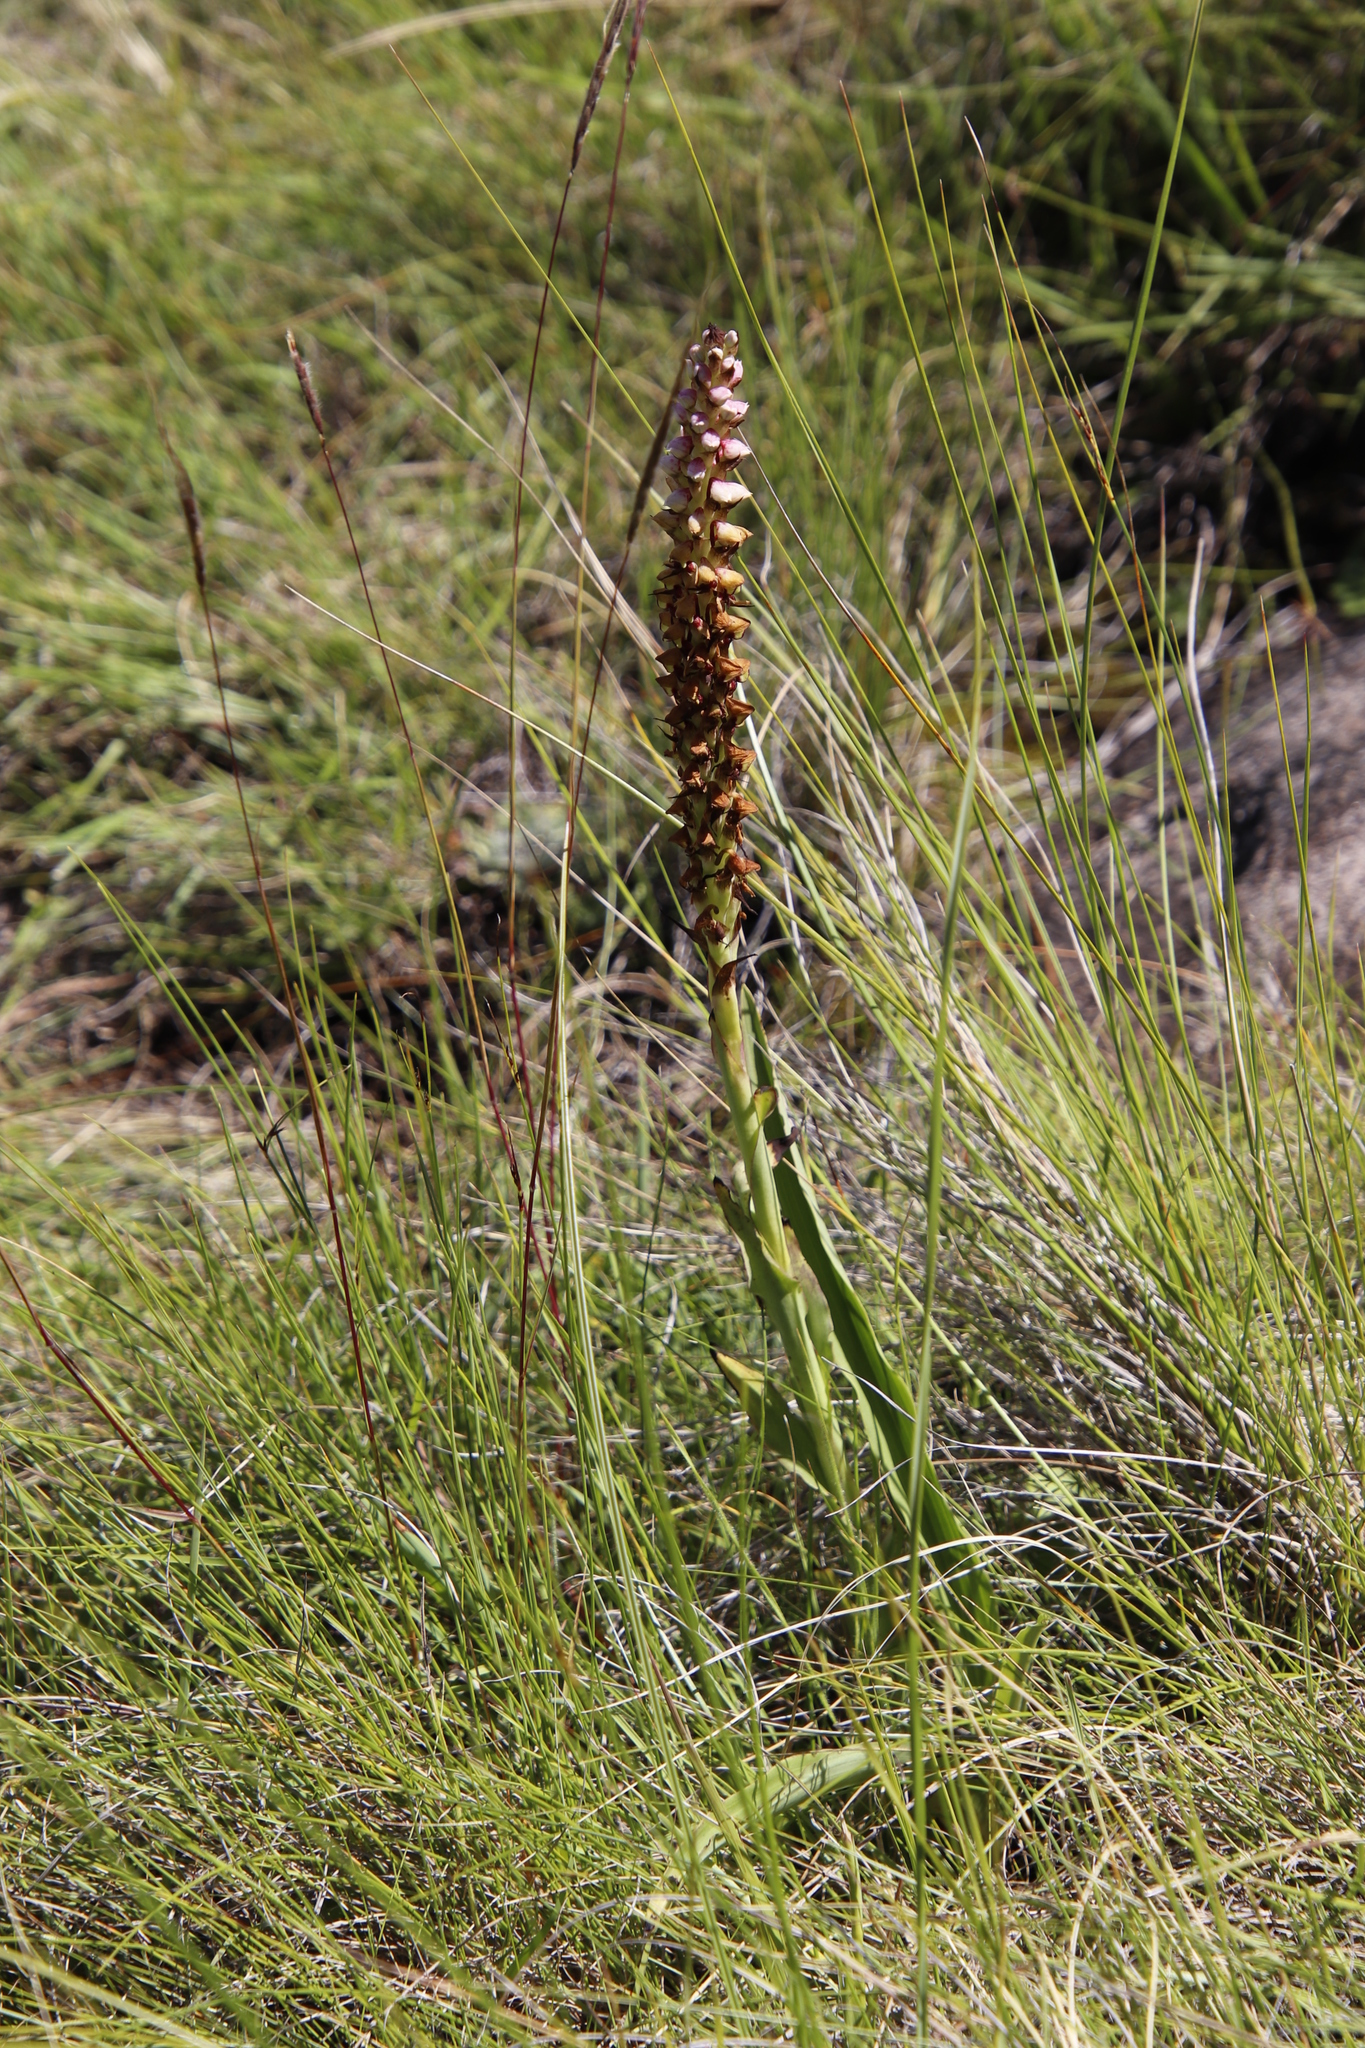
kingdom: Plantae
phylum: Tracheophyta
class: Liliopsida
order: Asparagales
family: Orchidaceae
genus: Disa
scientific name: Disa versicolor
